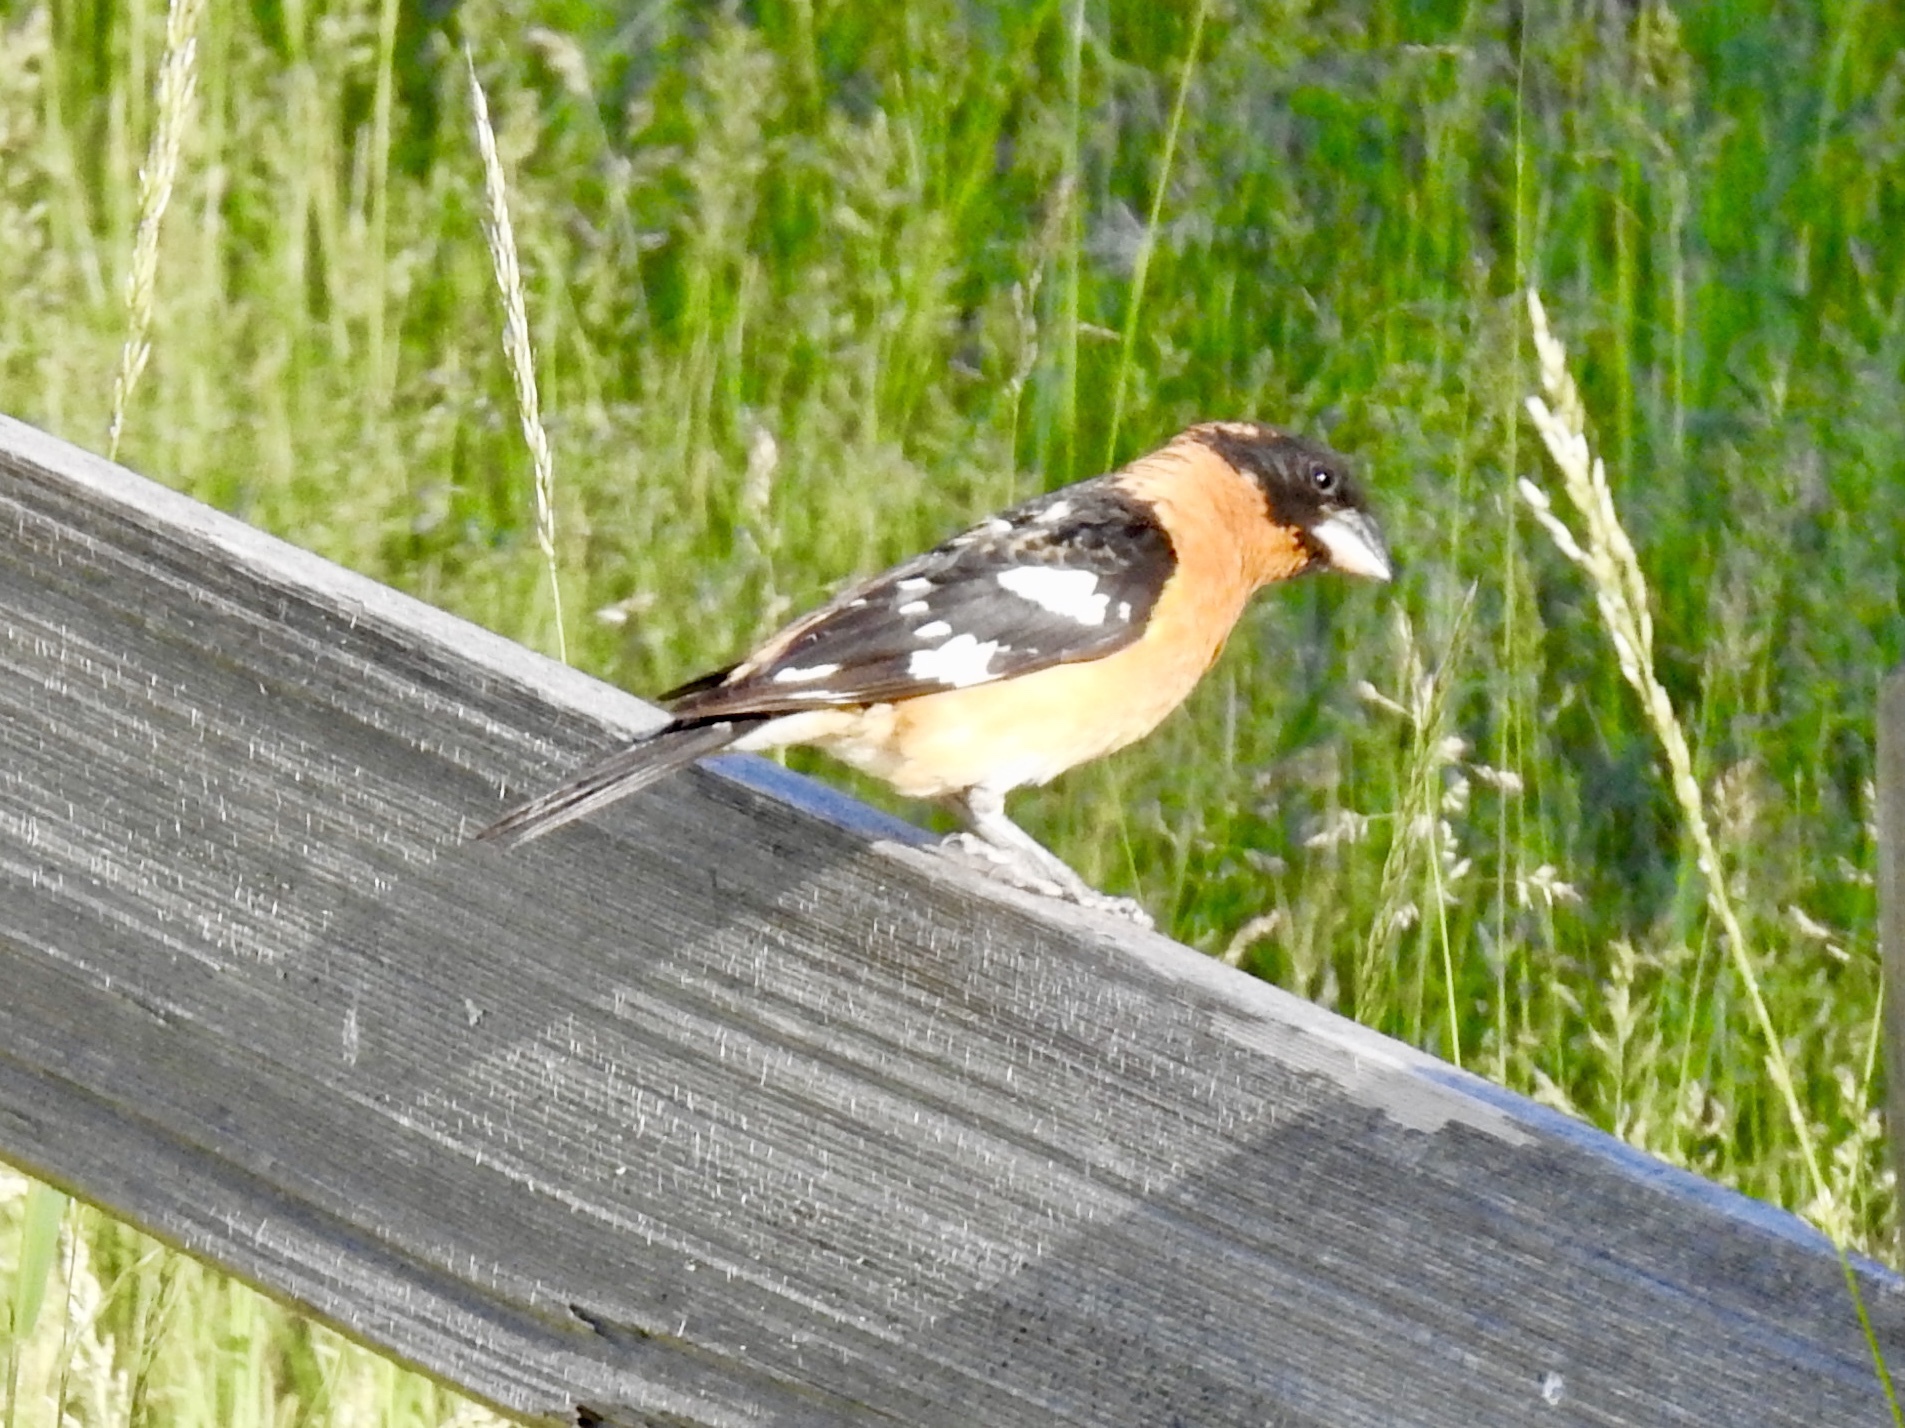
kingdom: Animalia
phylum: Chordata
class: Aves
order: Passeriformes
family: Cardinalidae
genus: Pheucticus
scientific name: Pheucticus melanocephalus
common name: Black-headed grosbeak
